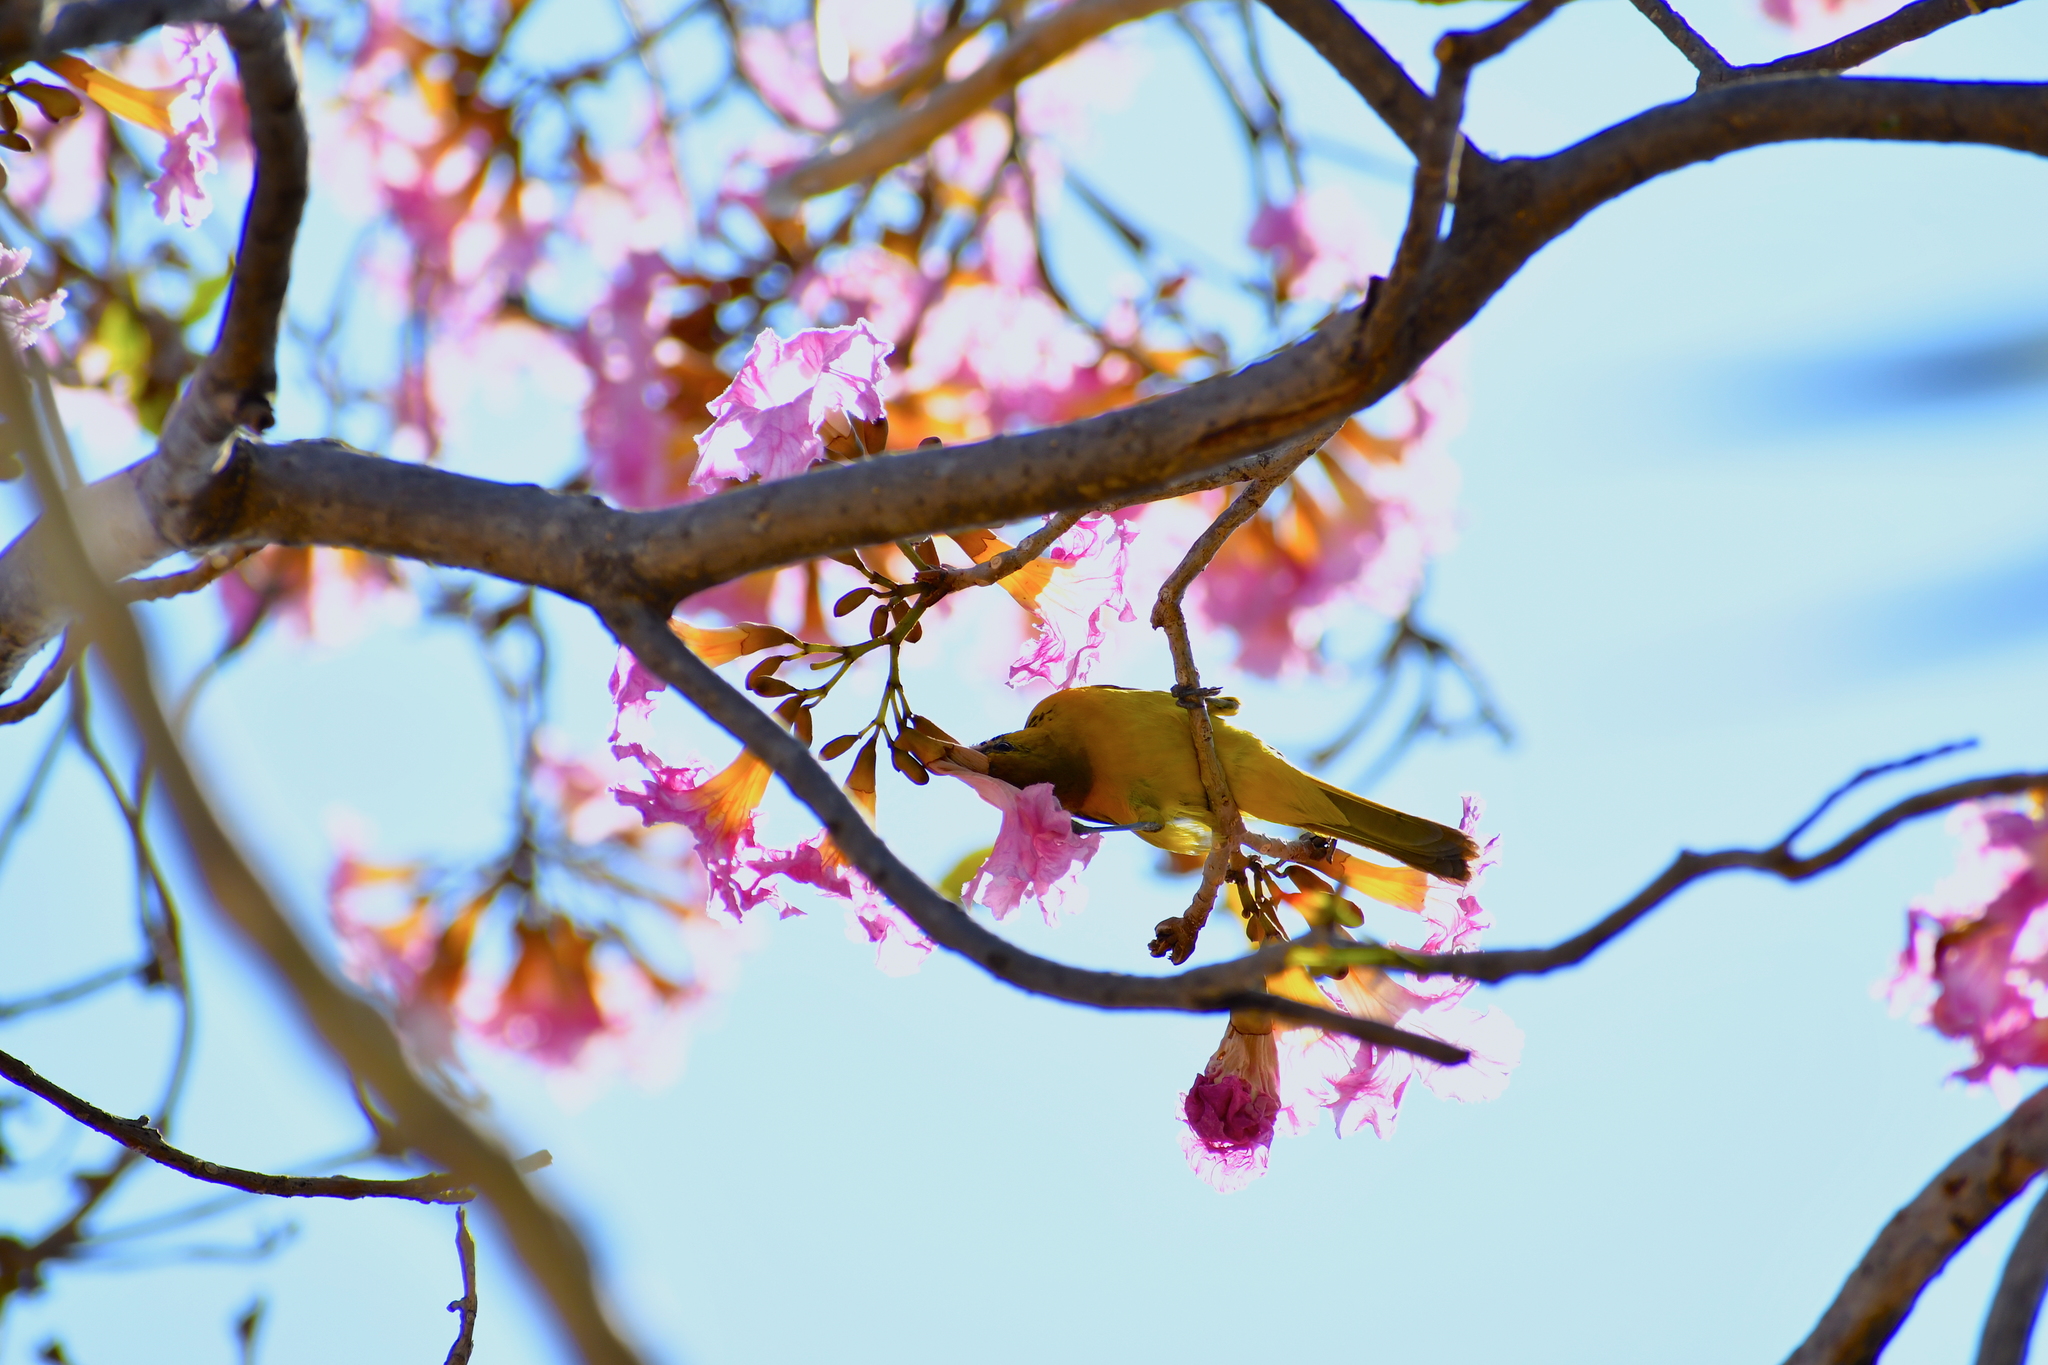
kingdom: Animalia
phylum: Chordata
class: Aves
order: Passeriformes
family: Icteridae
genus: Icterus
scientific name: Icterus pustulatus
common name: Streak-backed oriole
